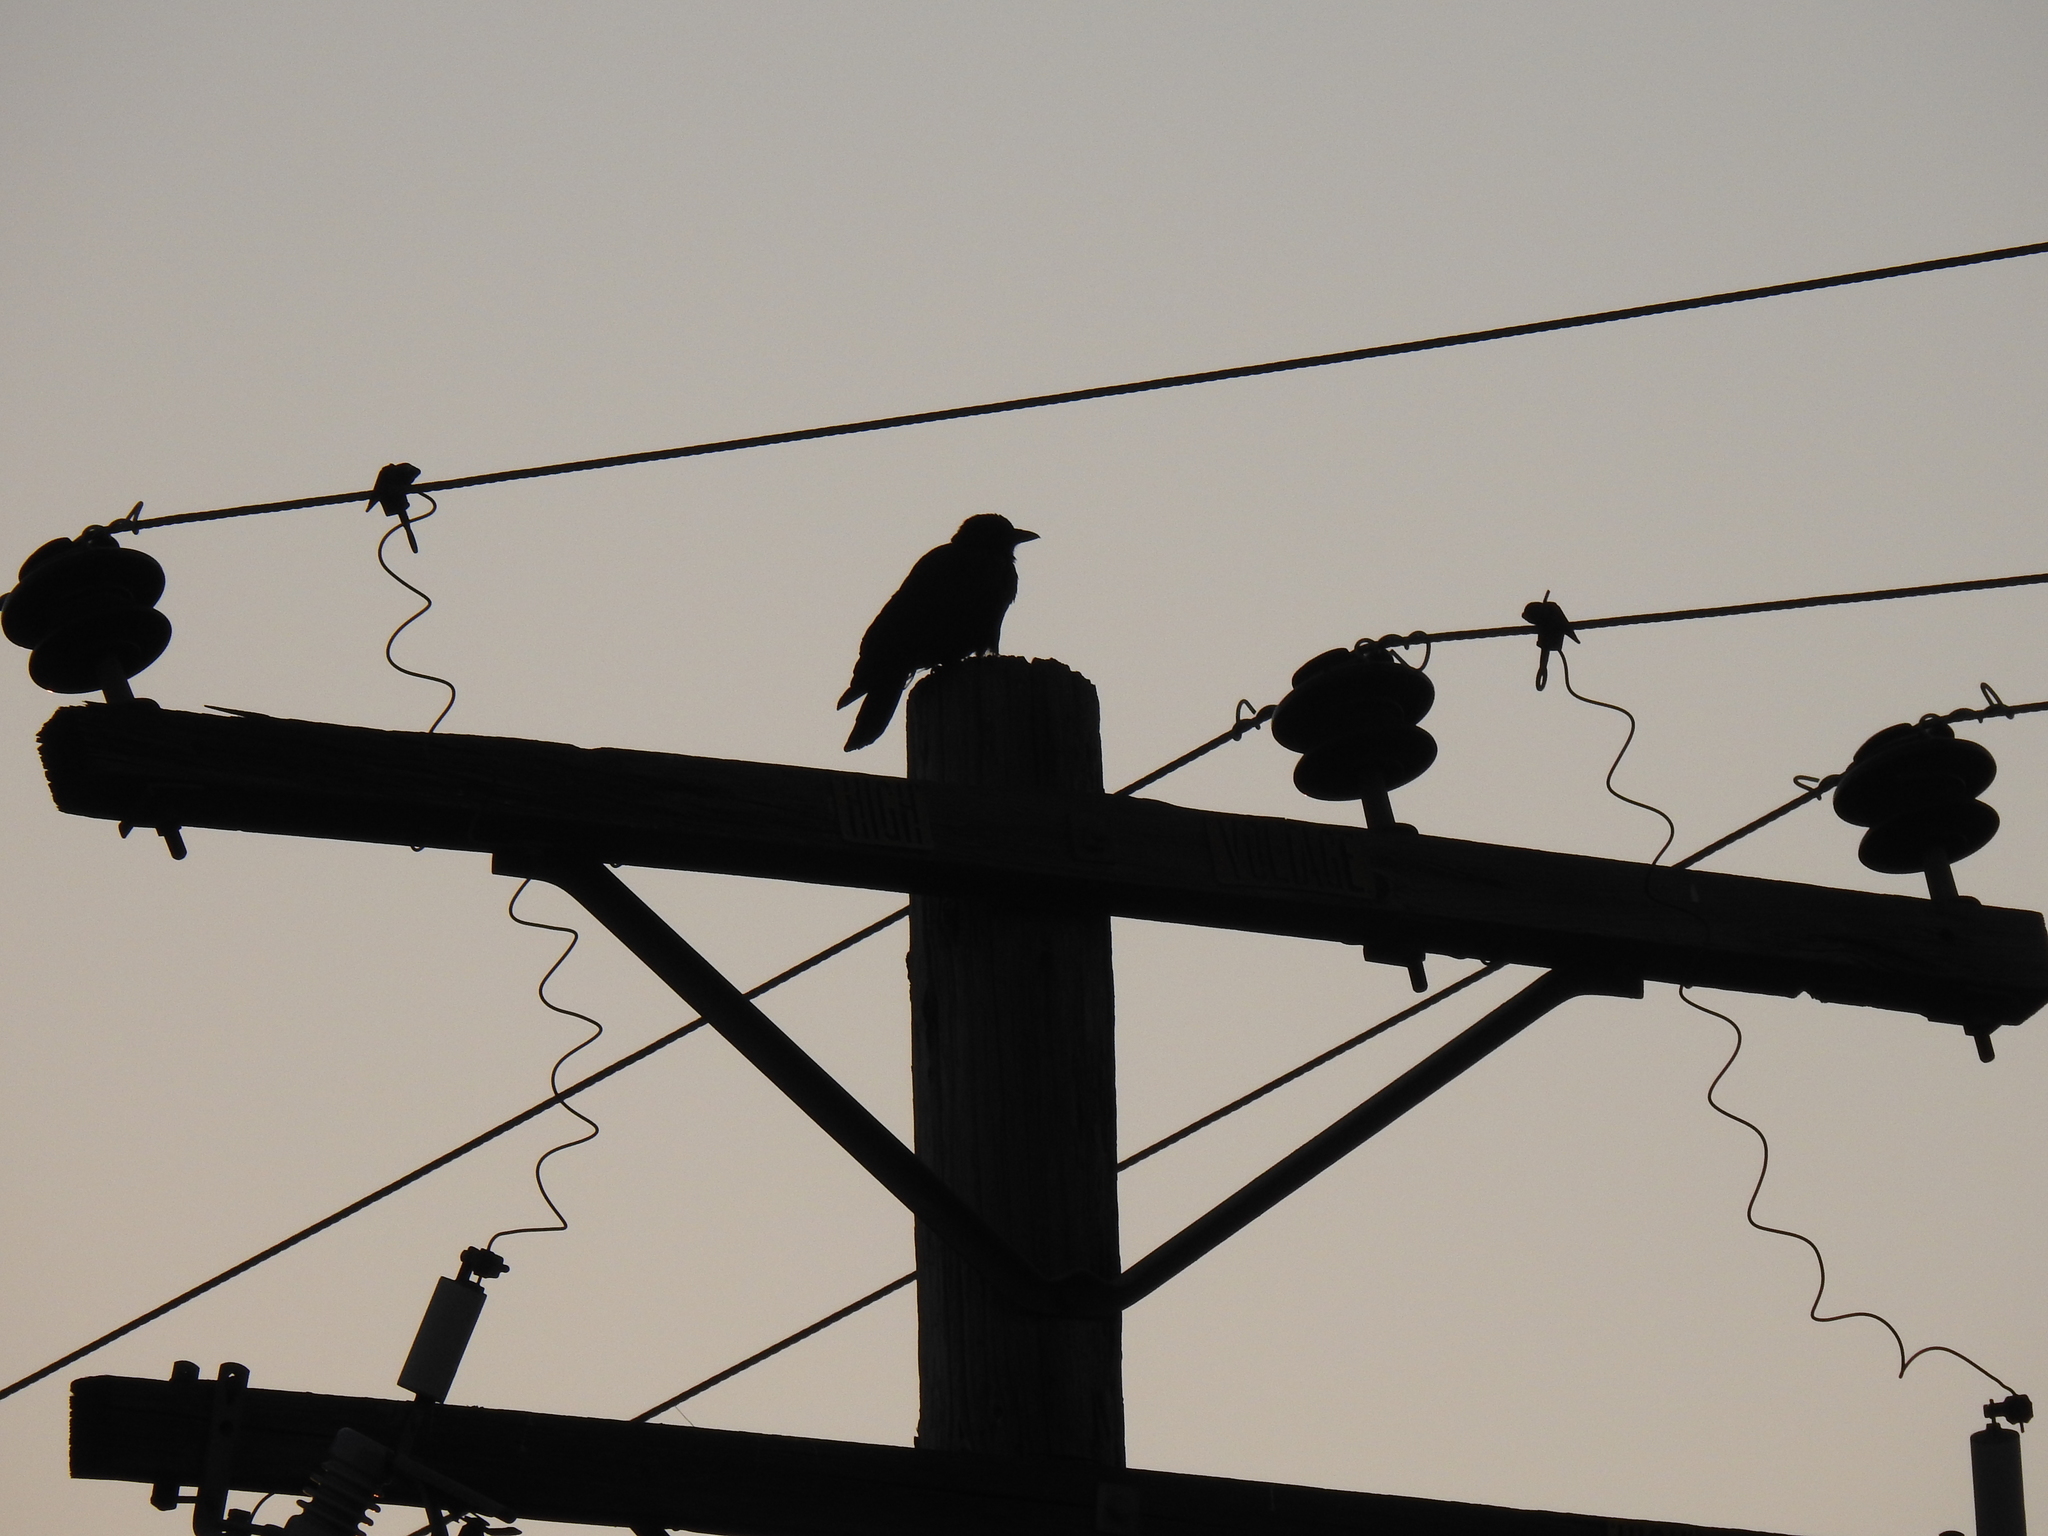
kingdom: Animalia
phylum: Chordata
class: Aves
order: Passeriformes
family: Corvidae
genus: Corvus
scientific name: Corvus brachyrhynchos
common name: American crow
